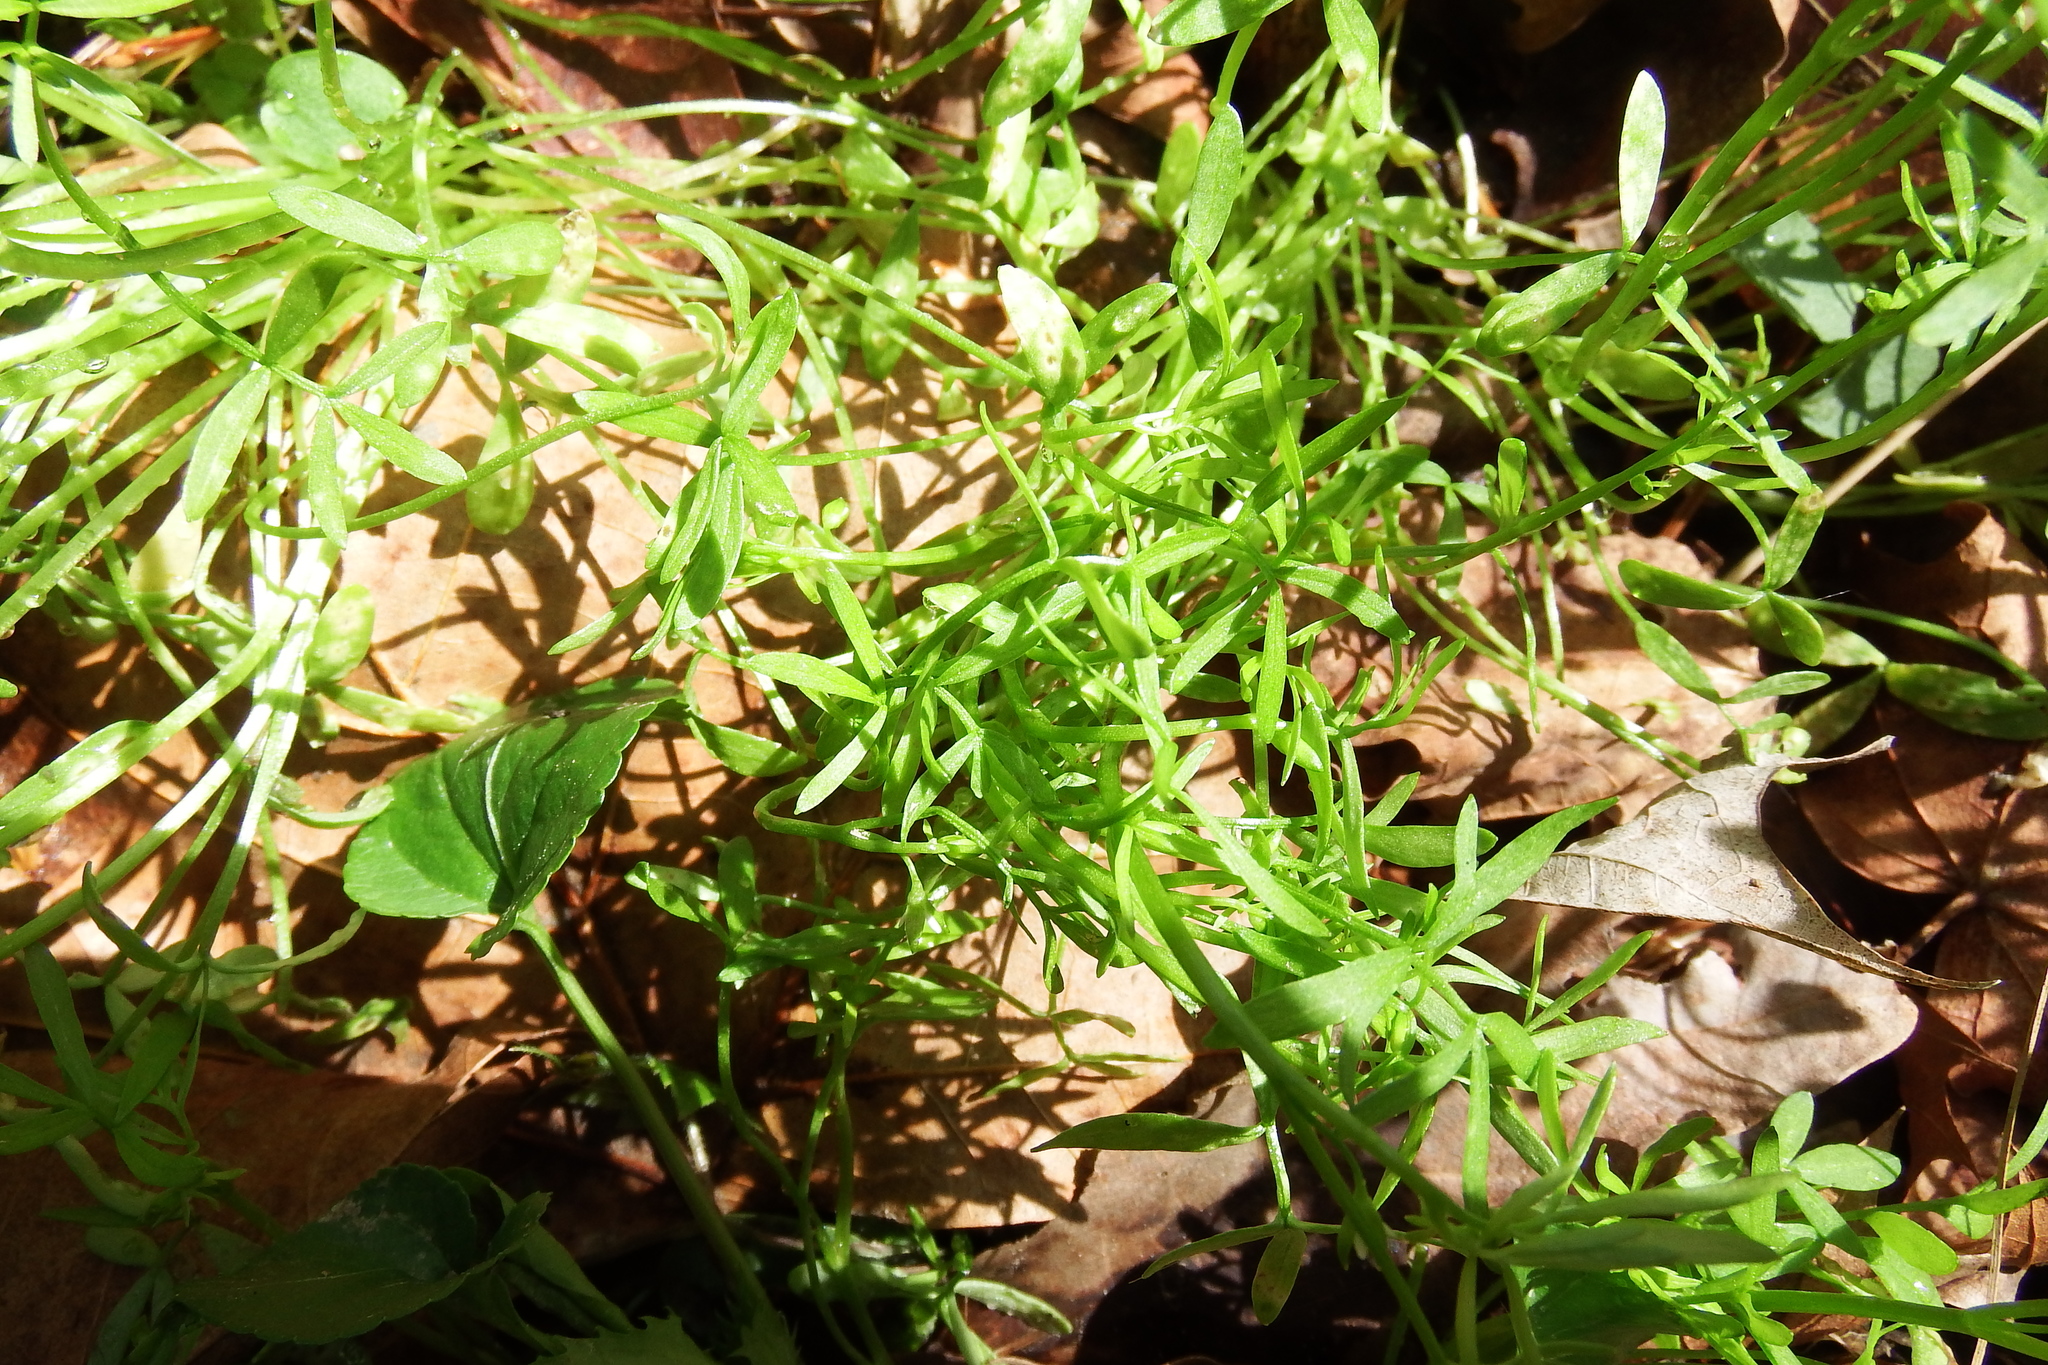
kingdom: Plantae
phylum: Tracheophyta
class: Magnoliopsida
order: Brassicales
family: Limnanthaceae
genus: Floerkea
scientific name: Floerkea proserpinacoides
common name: False mermaid
